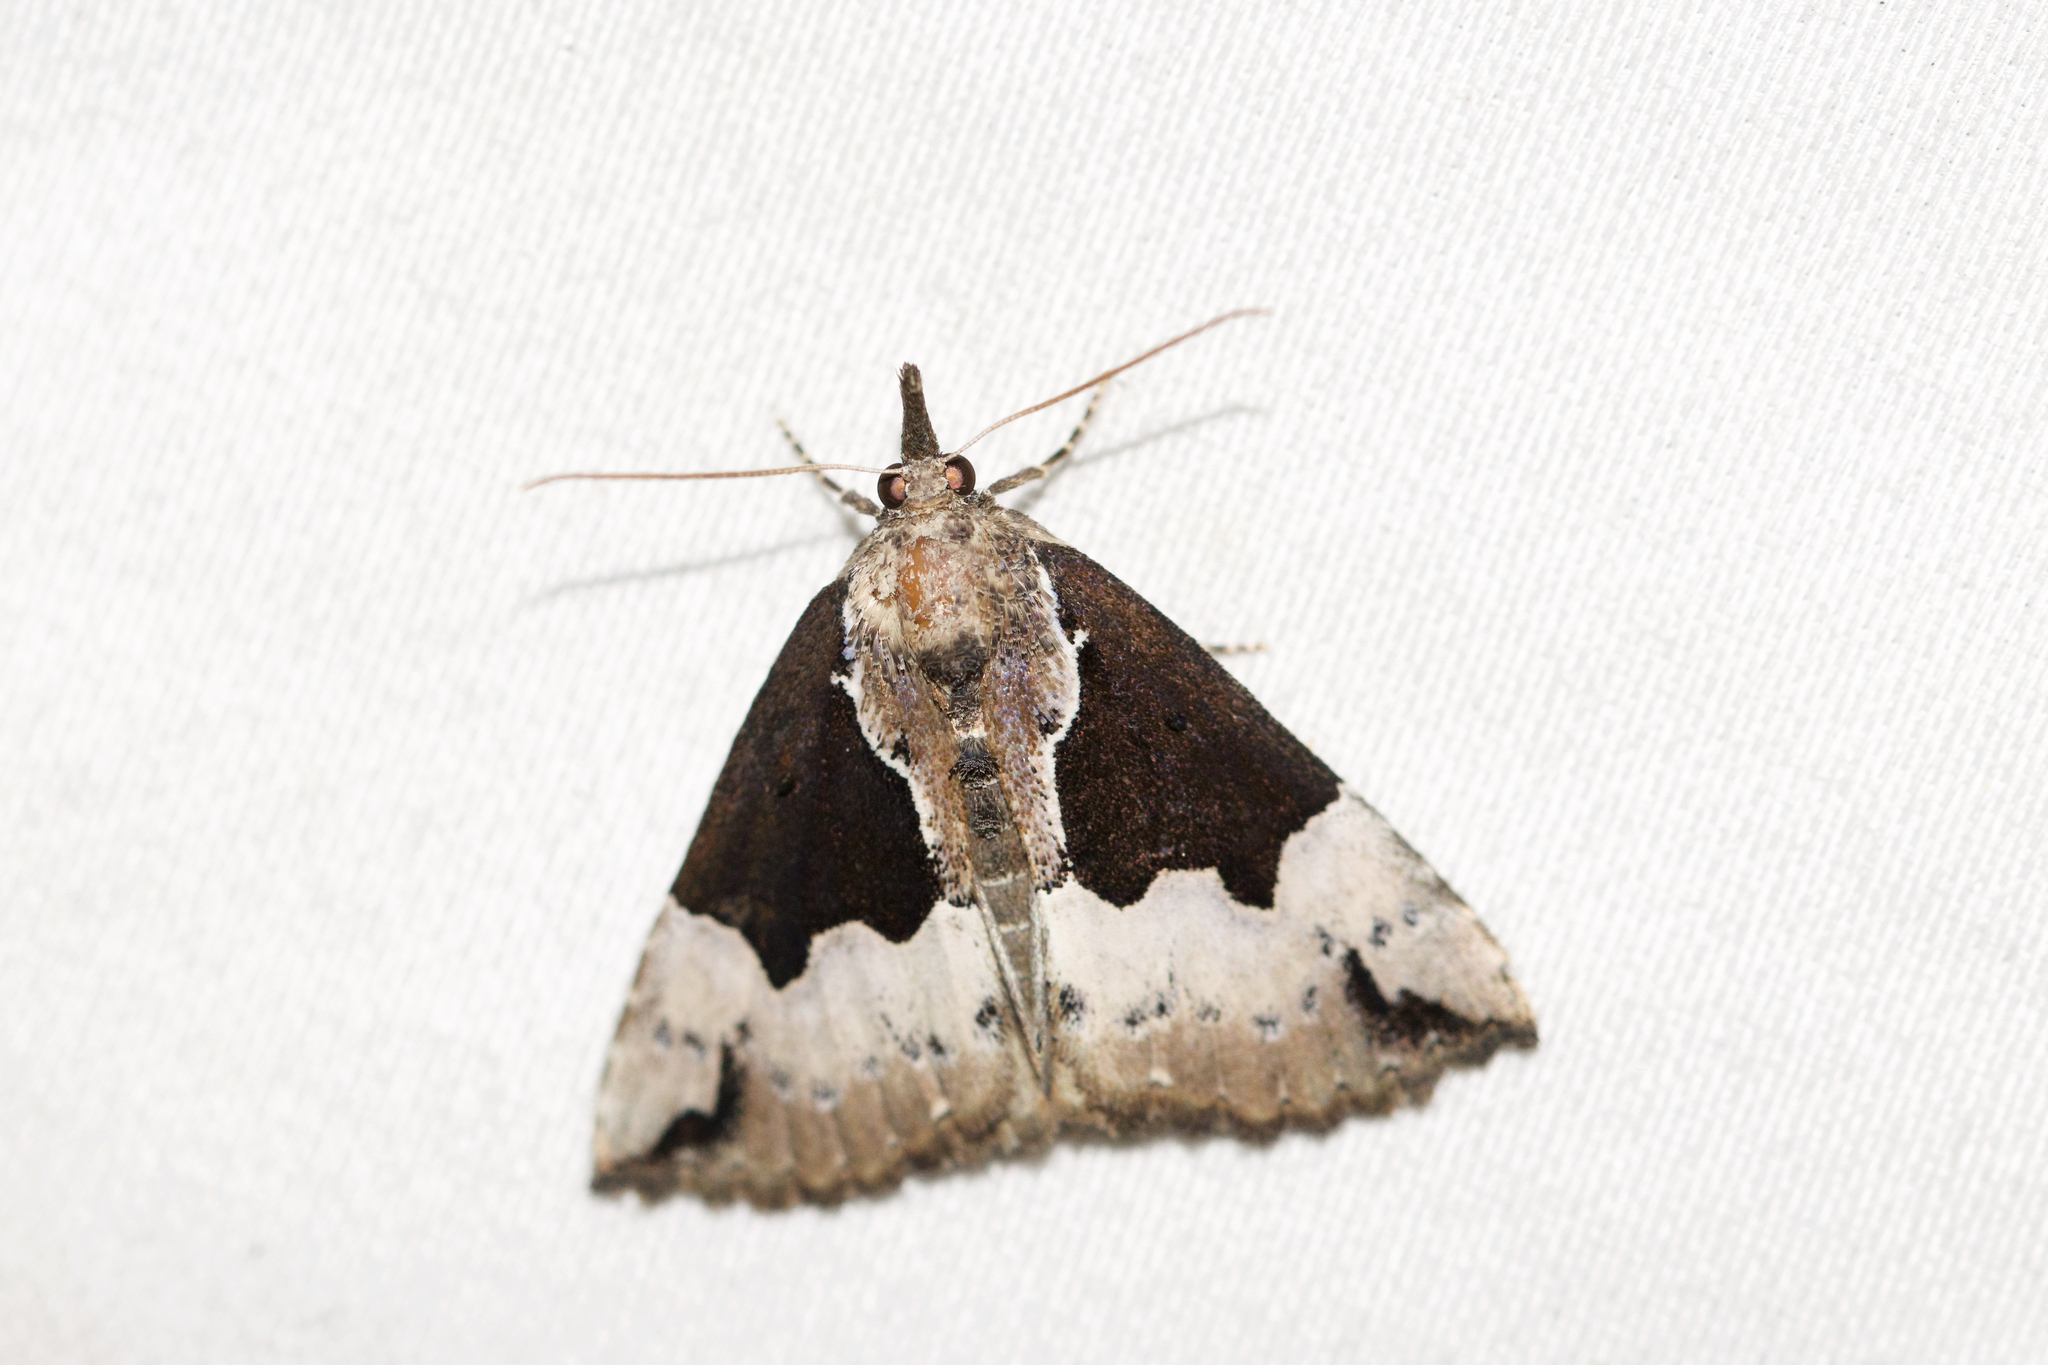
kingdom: Animalia
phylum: Arthropoda
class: Insecta
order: Lepidoptera
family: Erebidae
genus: Hypena
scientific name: Hypena bijugalis
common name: Dimorphic bomolocha moth
